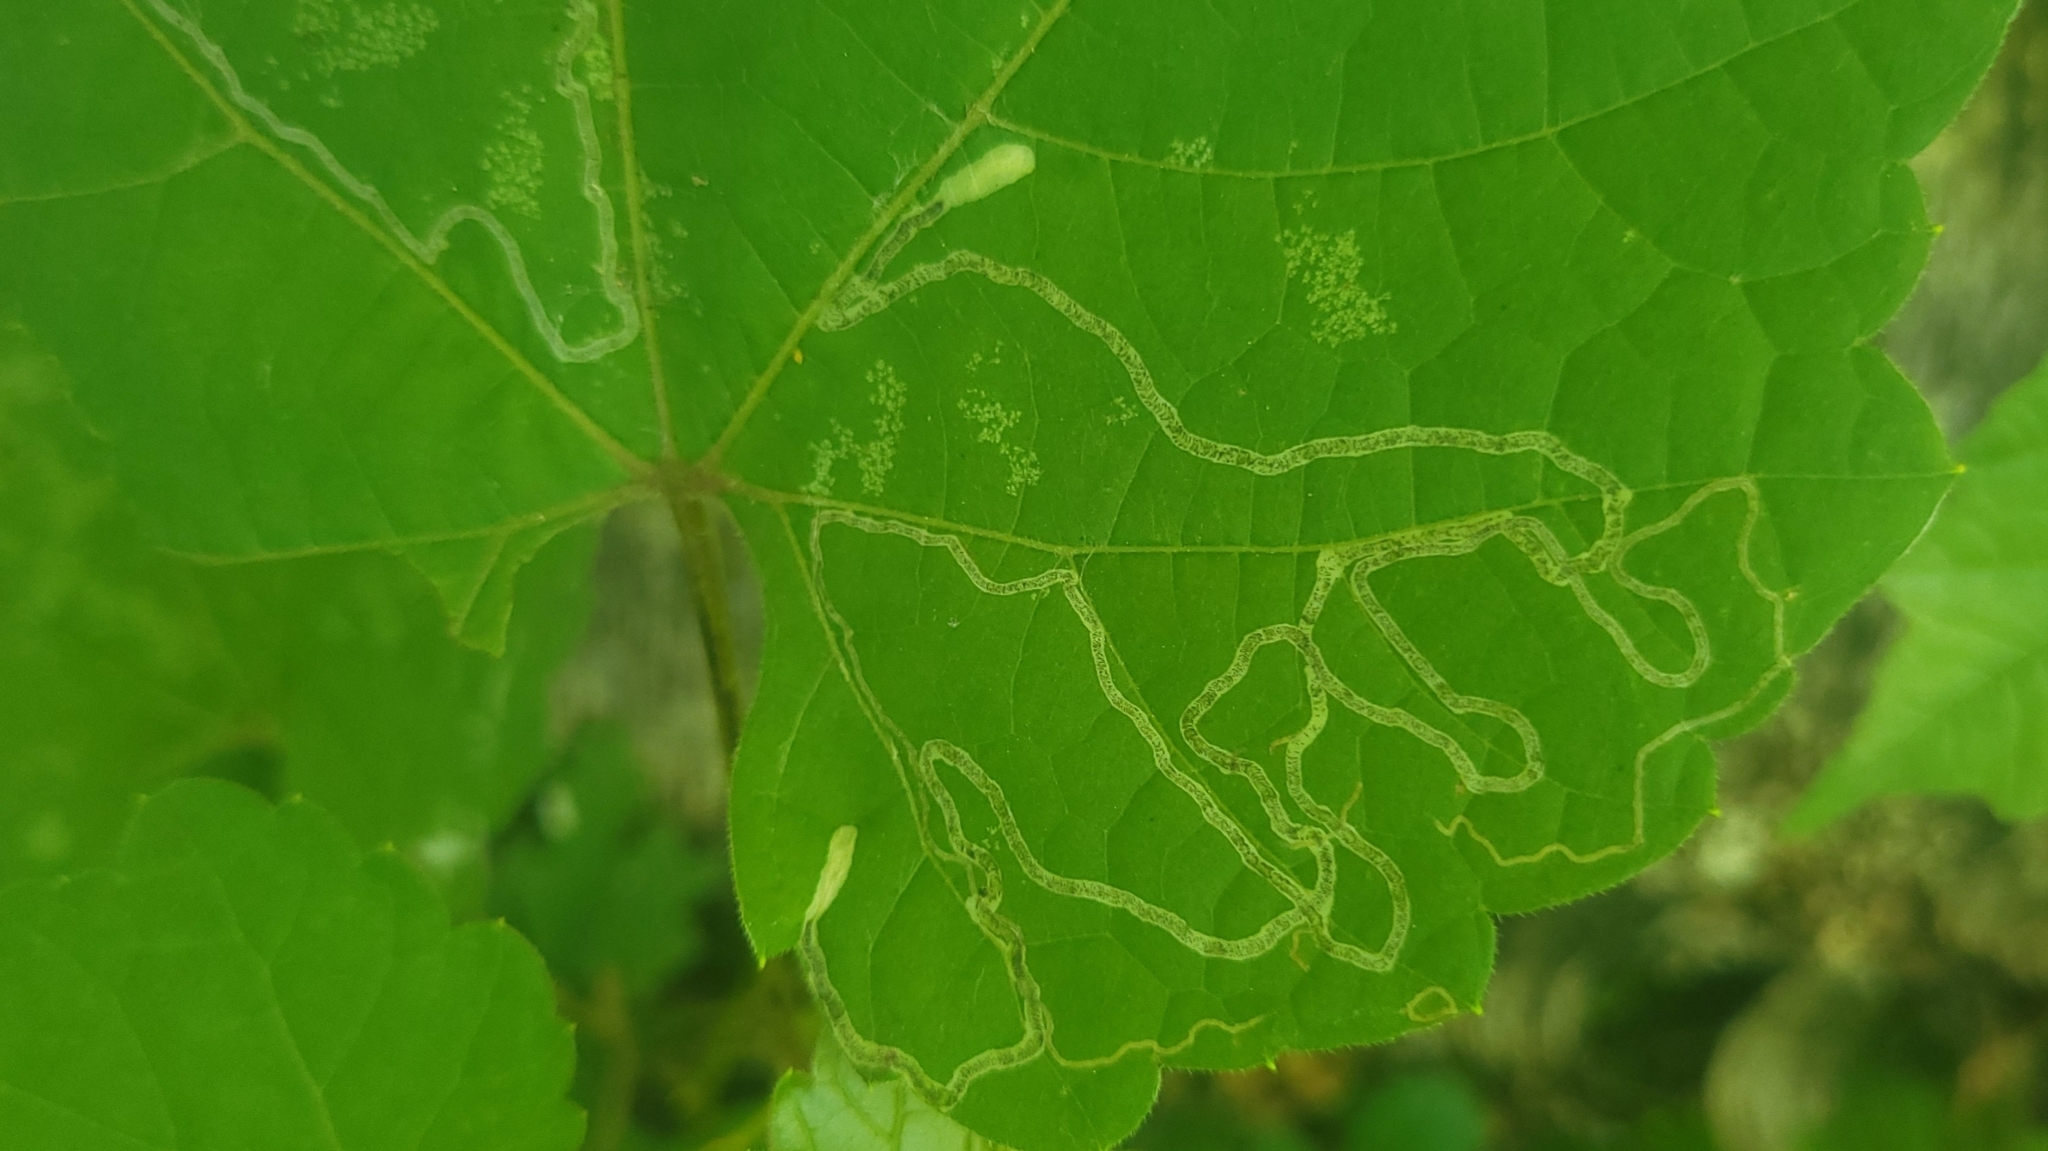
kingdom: Animalia
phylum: Arthropoda
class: Insecta
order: Lepidoptera
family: Gracillariidae
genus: Phyllocnistis
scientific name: Phyllocnistis vitifoliella
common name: Grape leaf-miner moth
